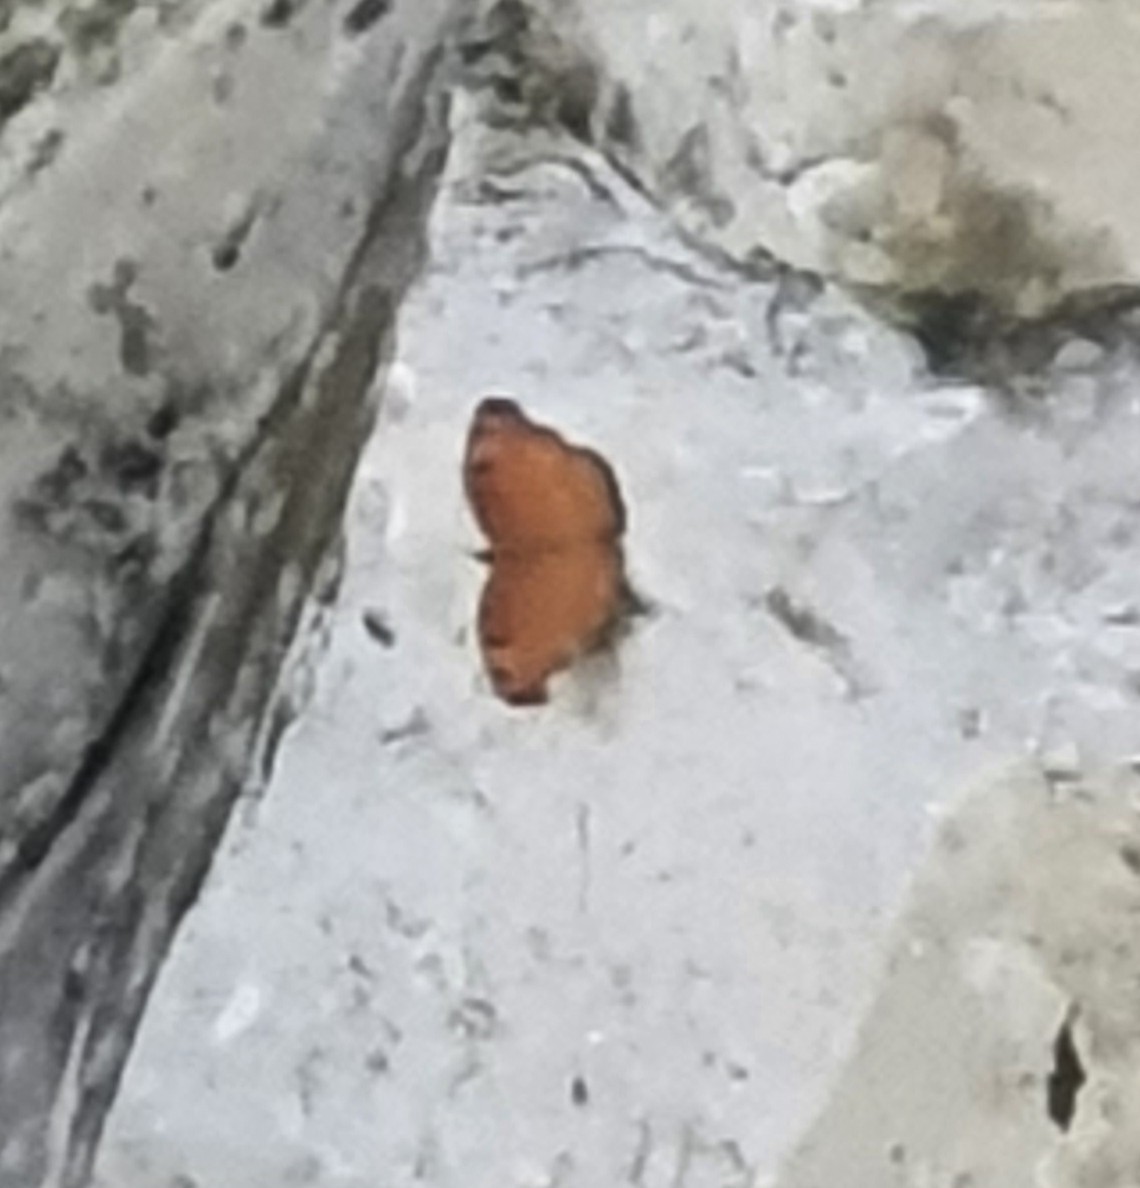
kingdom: Animalia
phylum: Arthropoda
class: Insecta
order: Lepidoptera
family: Nymphalidae
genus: Junonia
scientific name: Junonia hedonia
